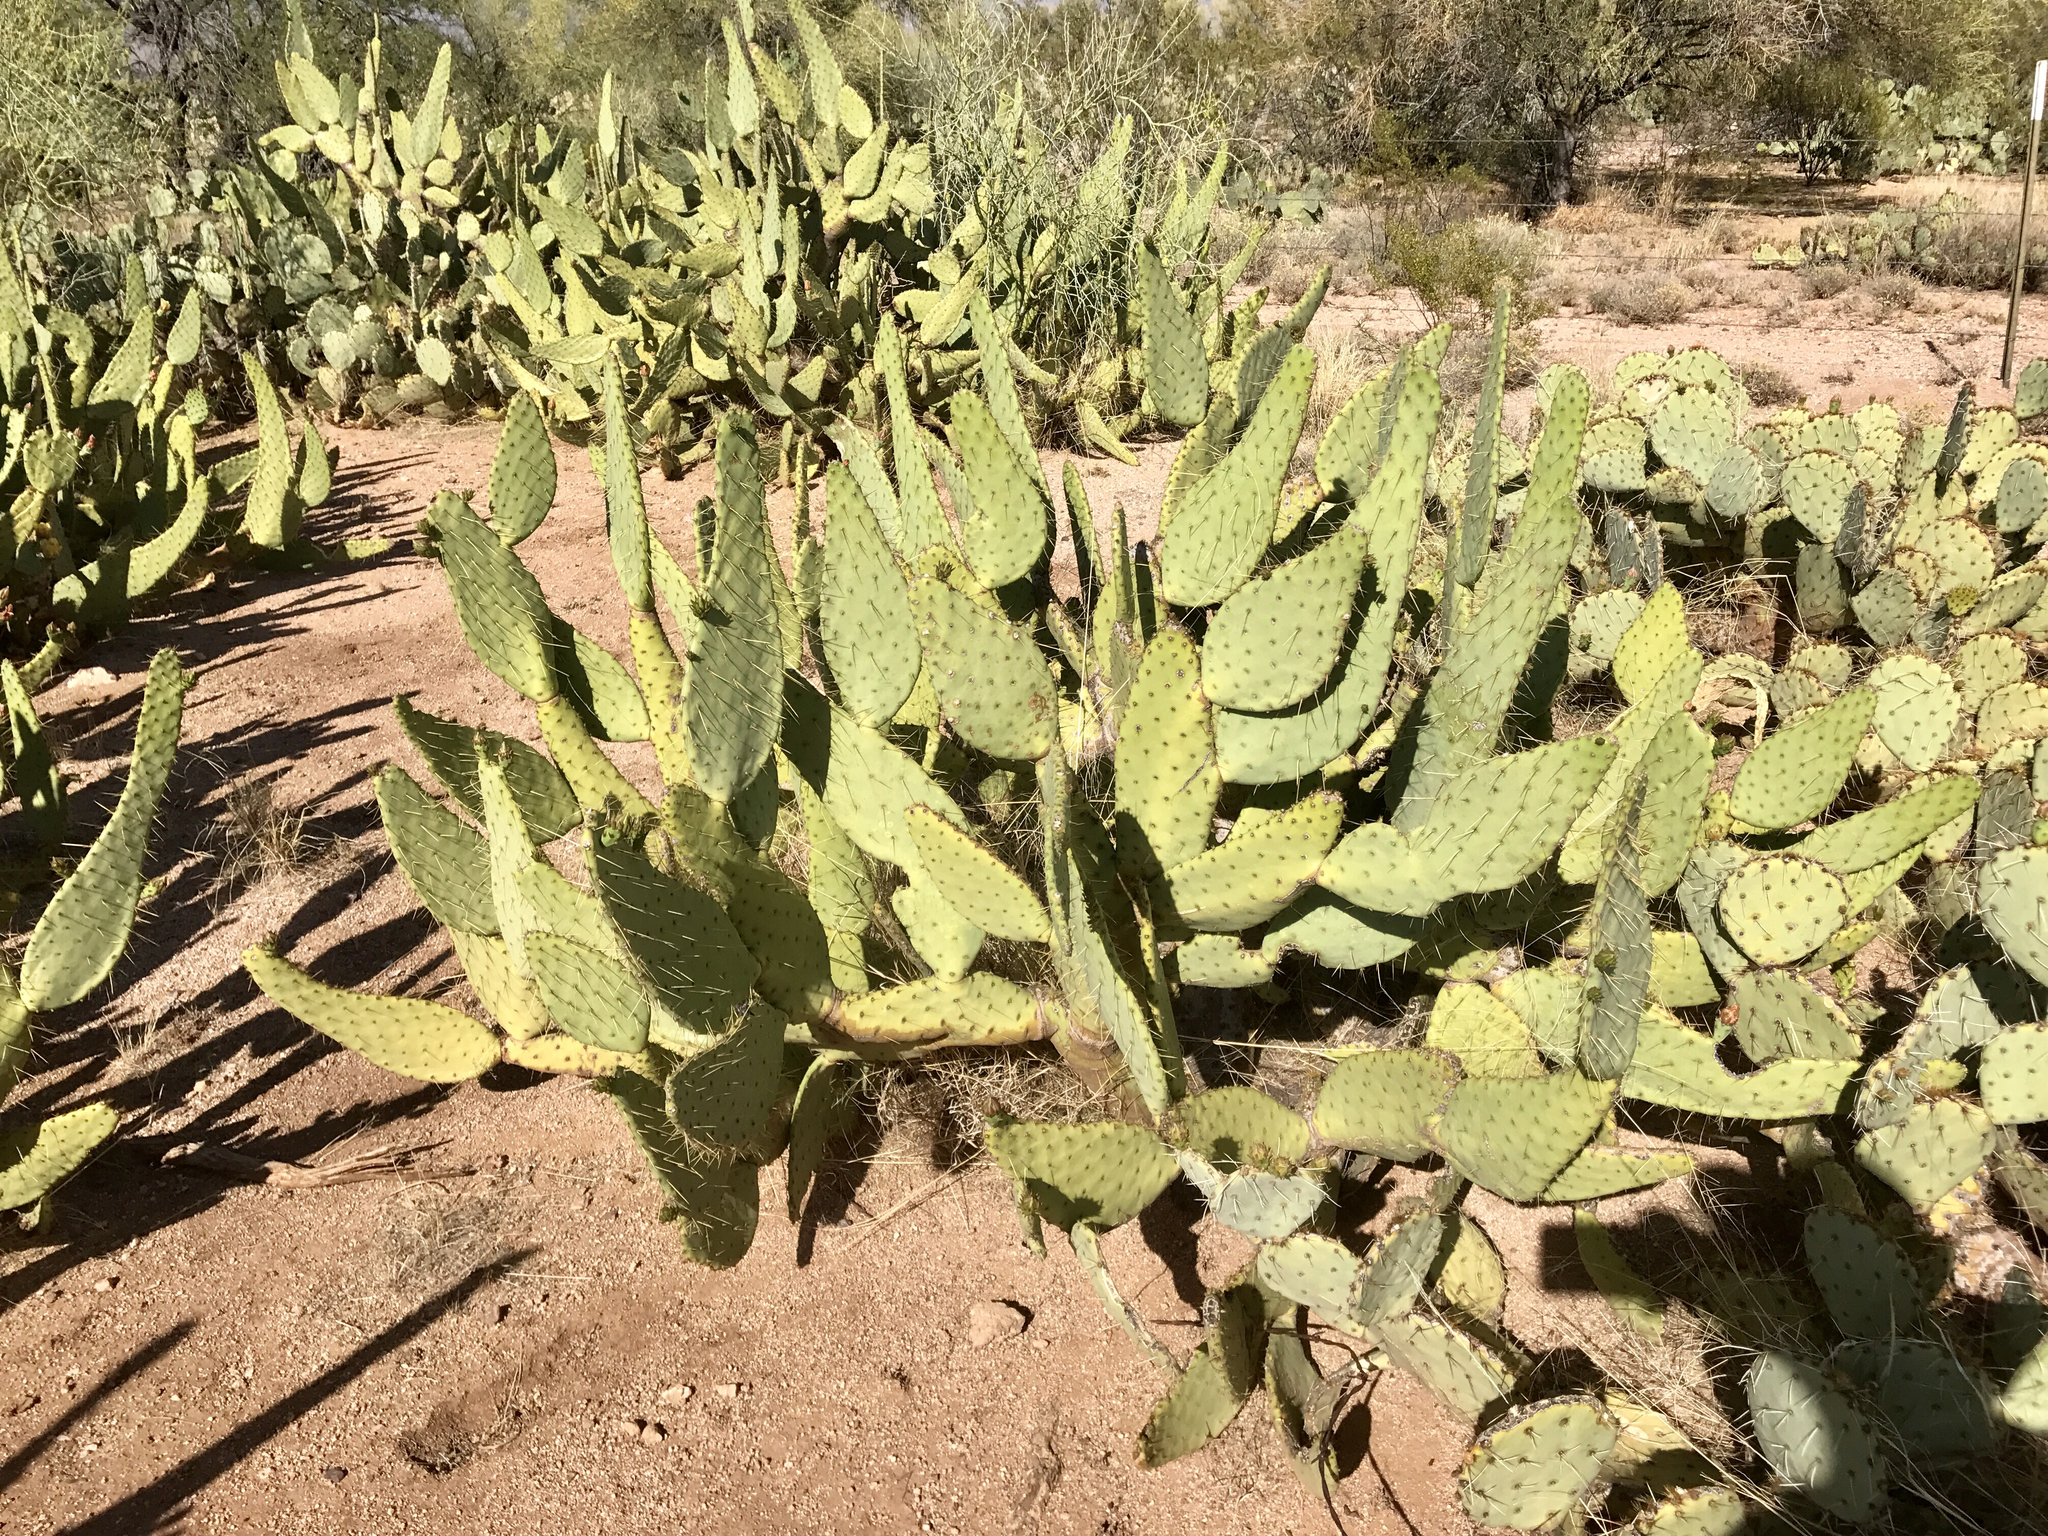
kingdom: Plantae
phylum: Tracheophyta
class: Magnoliopsida
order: Caryophyllales
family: Cactaceae
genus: Opuntia
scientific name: Opuntia engelmannii
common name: Cactus-apple
